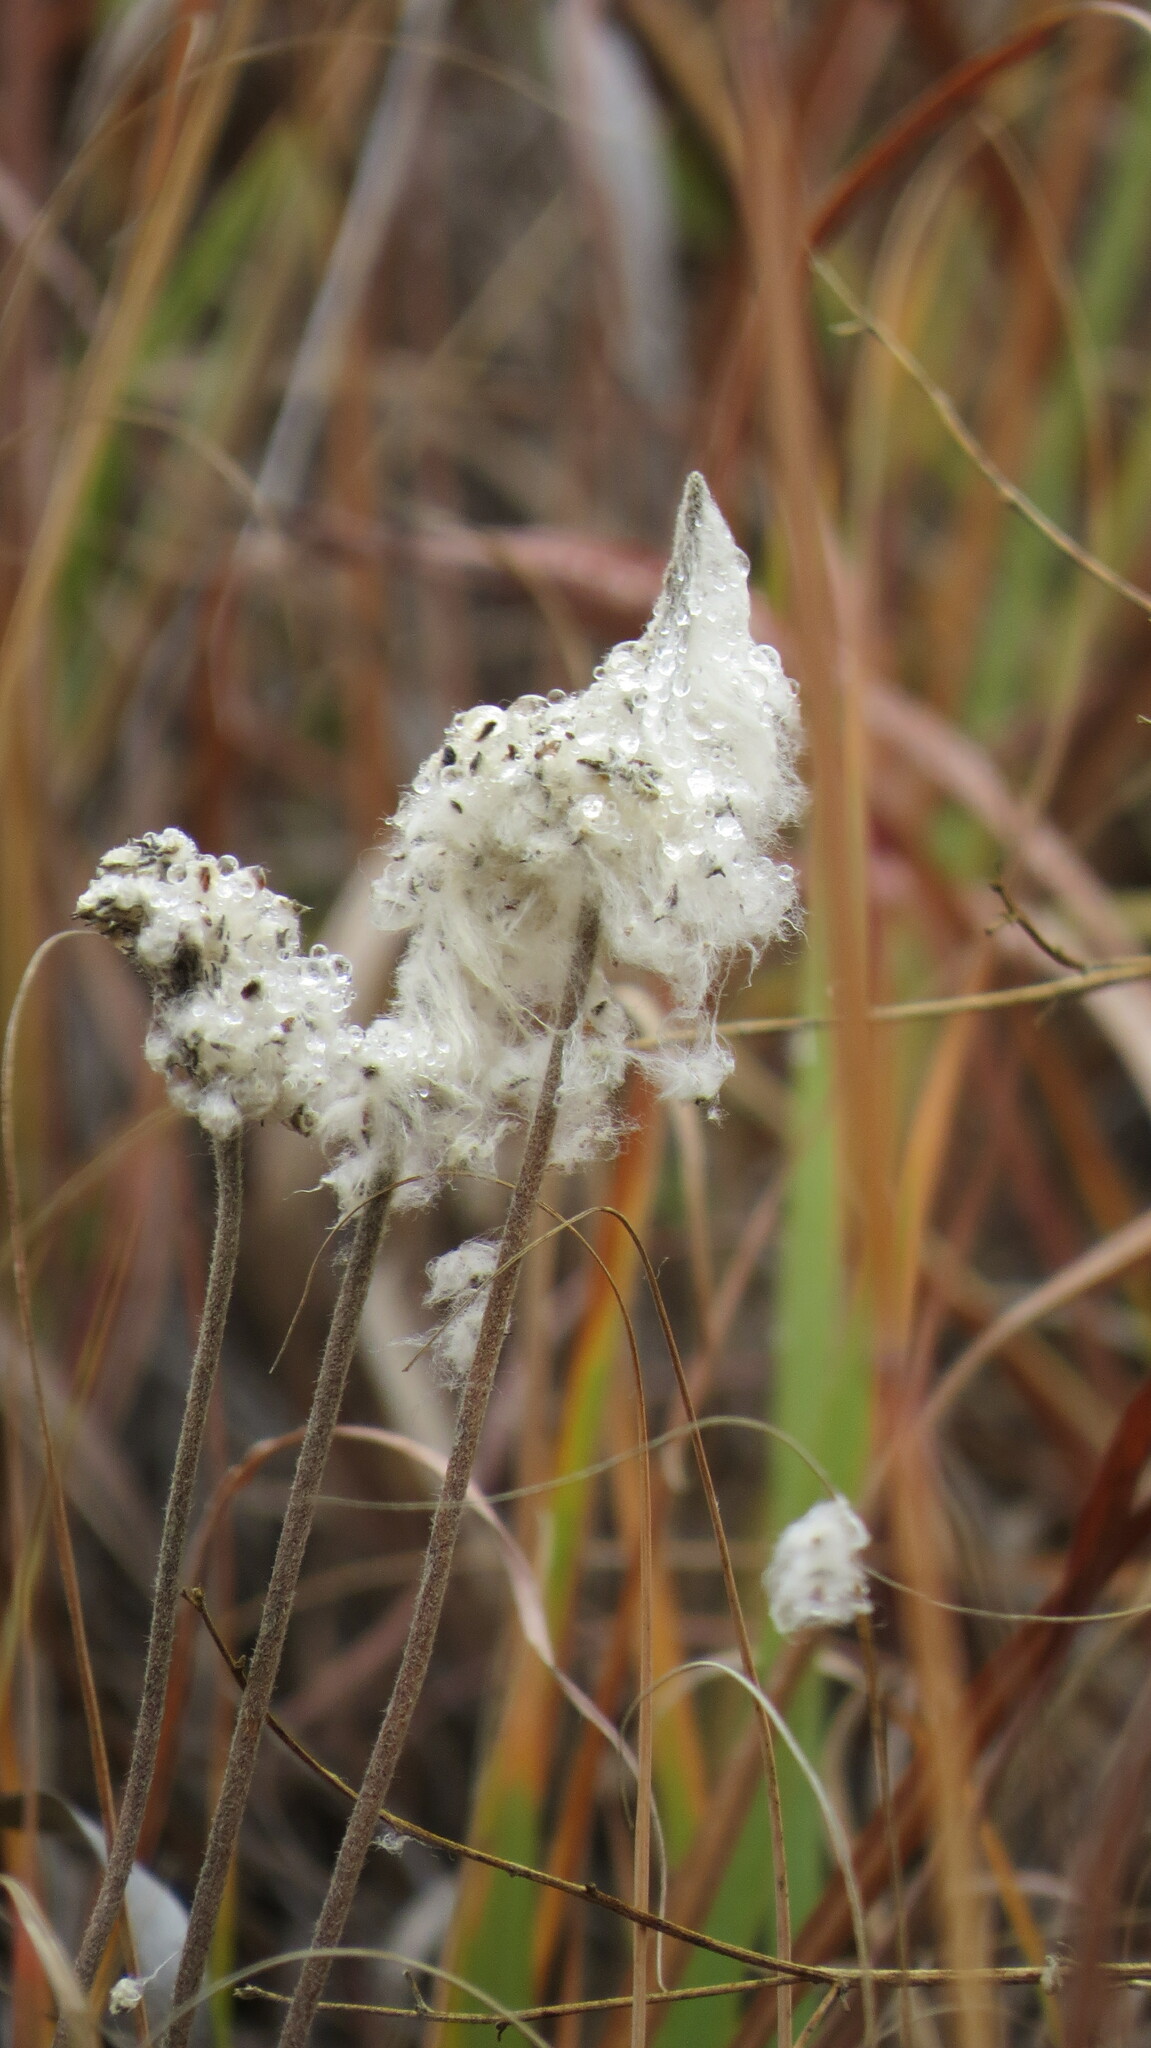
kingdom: Plantae
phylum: Tracheophyta
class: Magnoliopsida
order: Ranunculales
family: Ranunculaceae
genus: Anemone
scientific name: Anemone cylindrica
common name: Candle anemone
